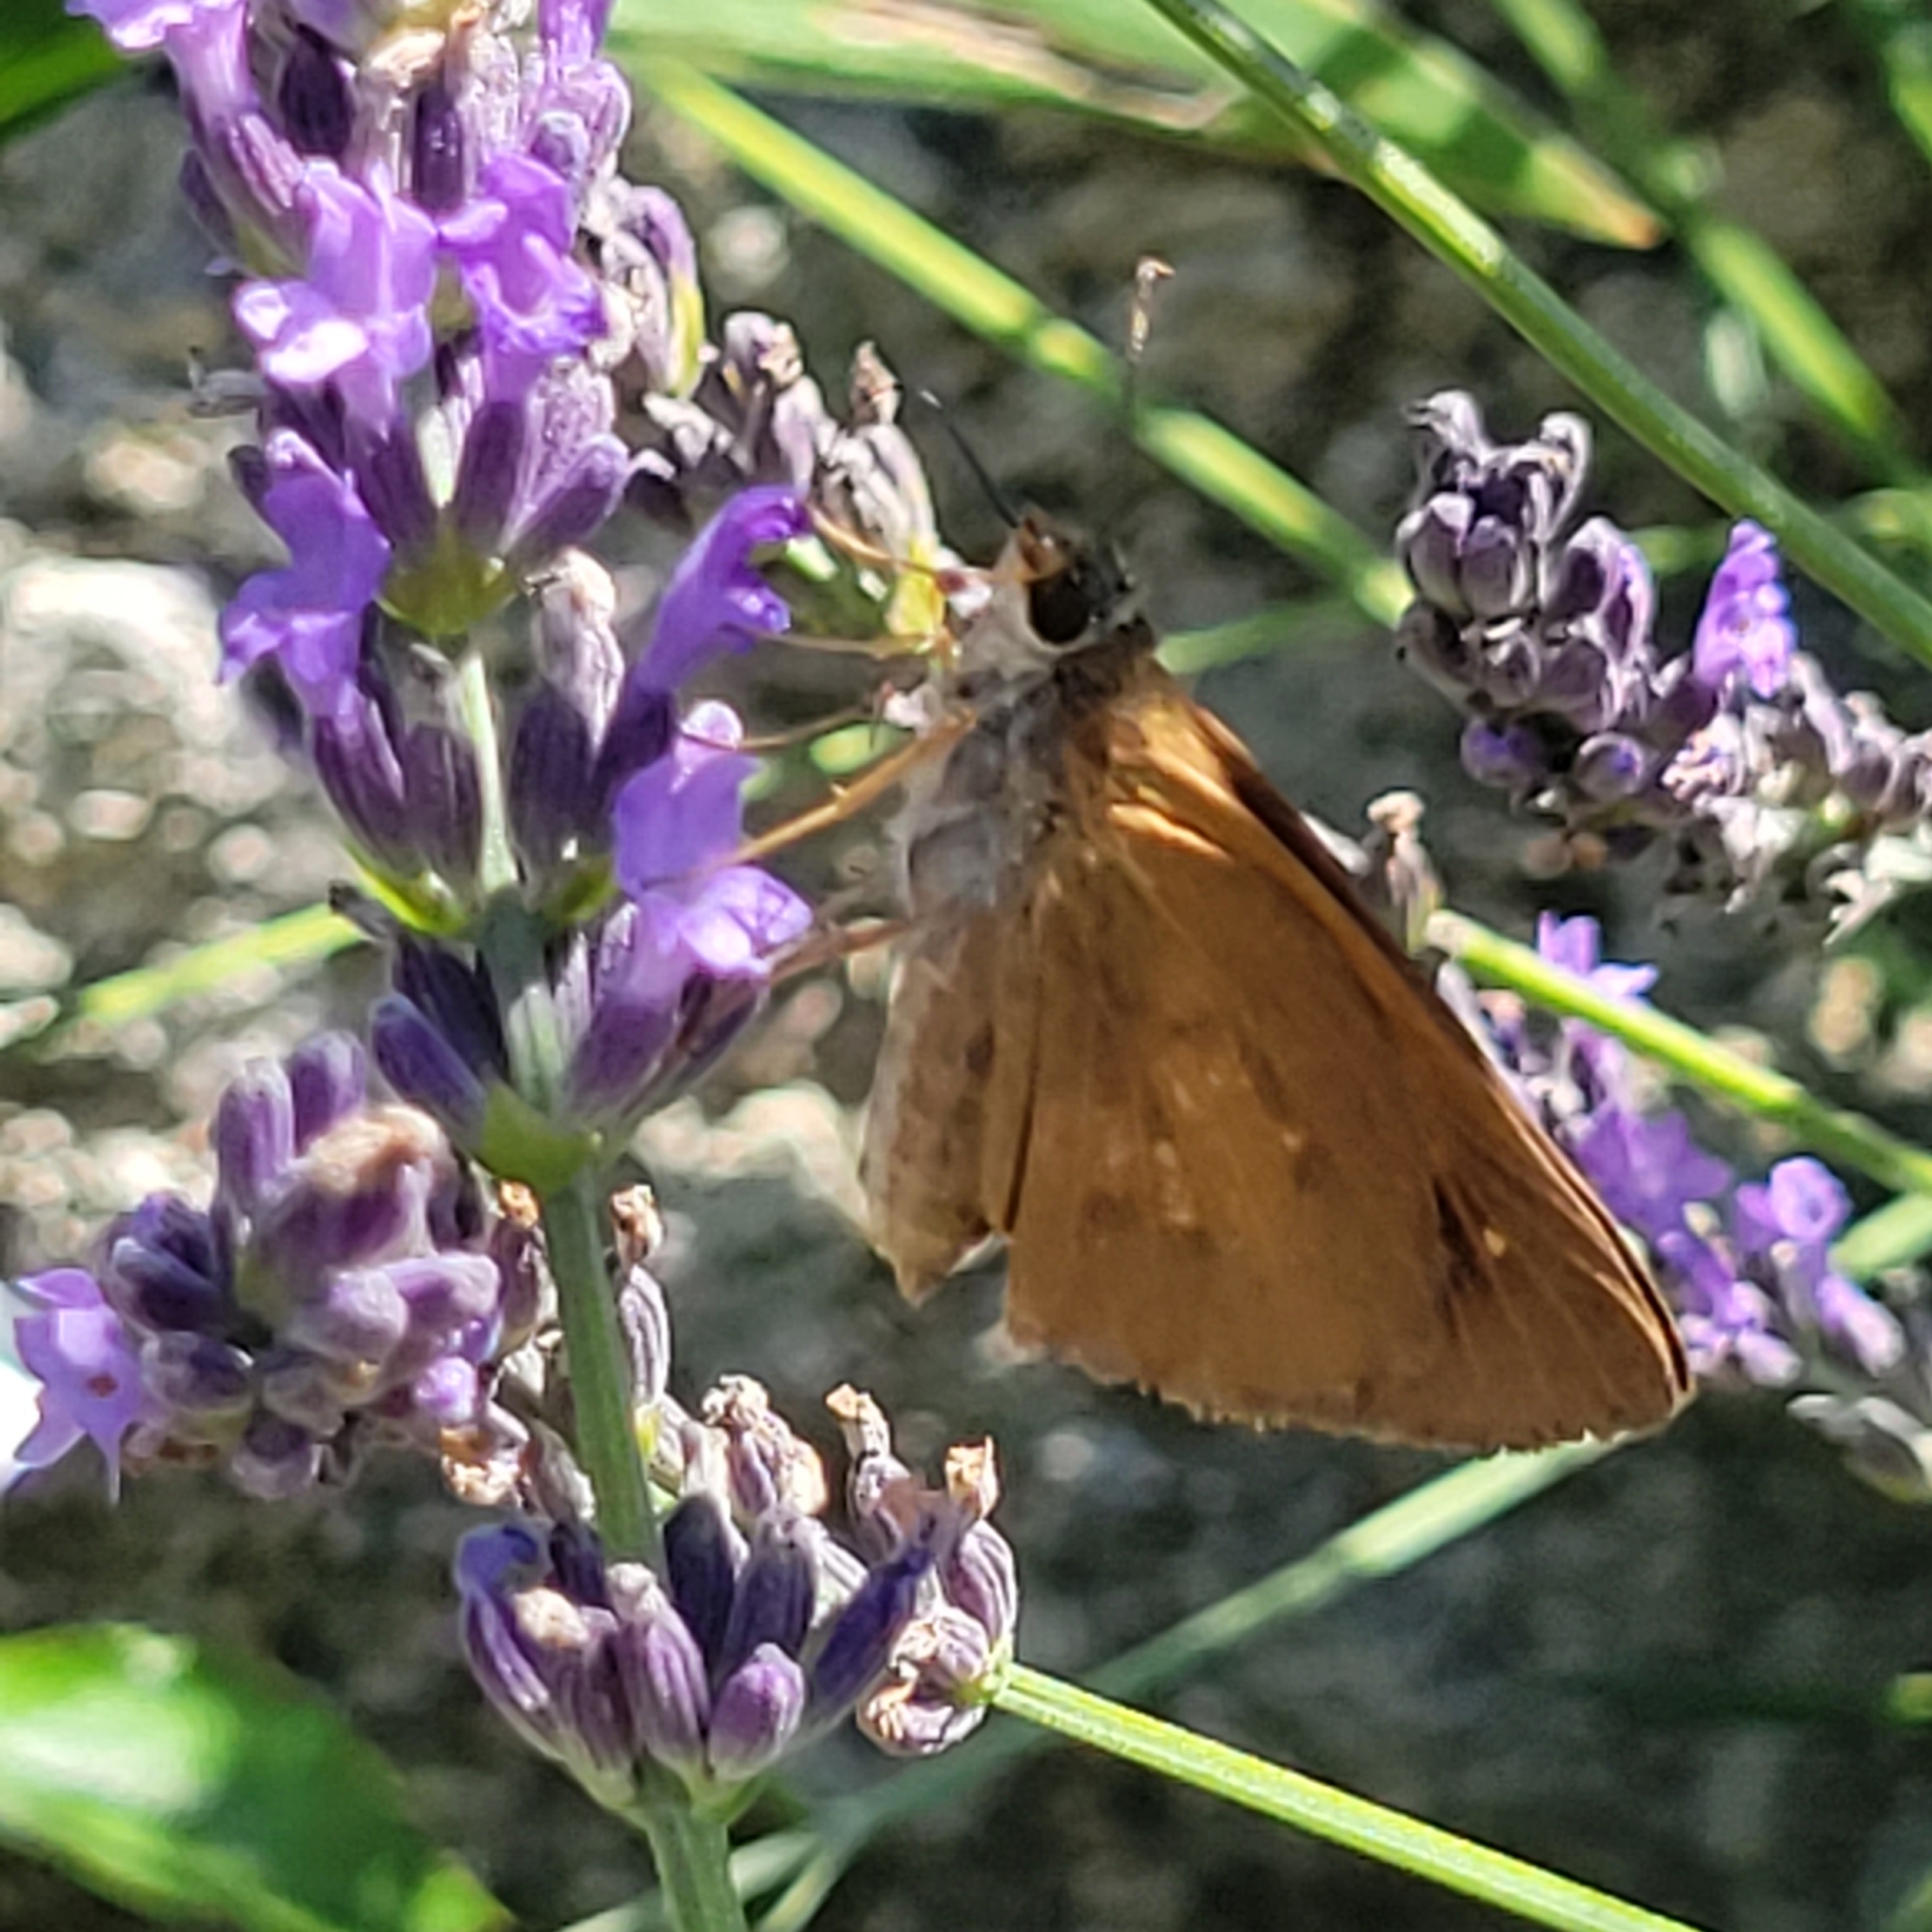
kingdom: Animalia
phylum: Arthropoda
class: Insecta
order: Lepidoptera
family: Hesperiidae
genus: Poanes
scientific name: Poanes viator
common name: Broad-winged skipper
